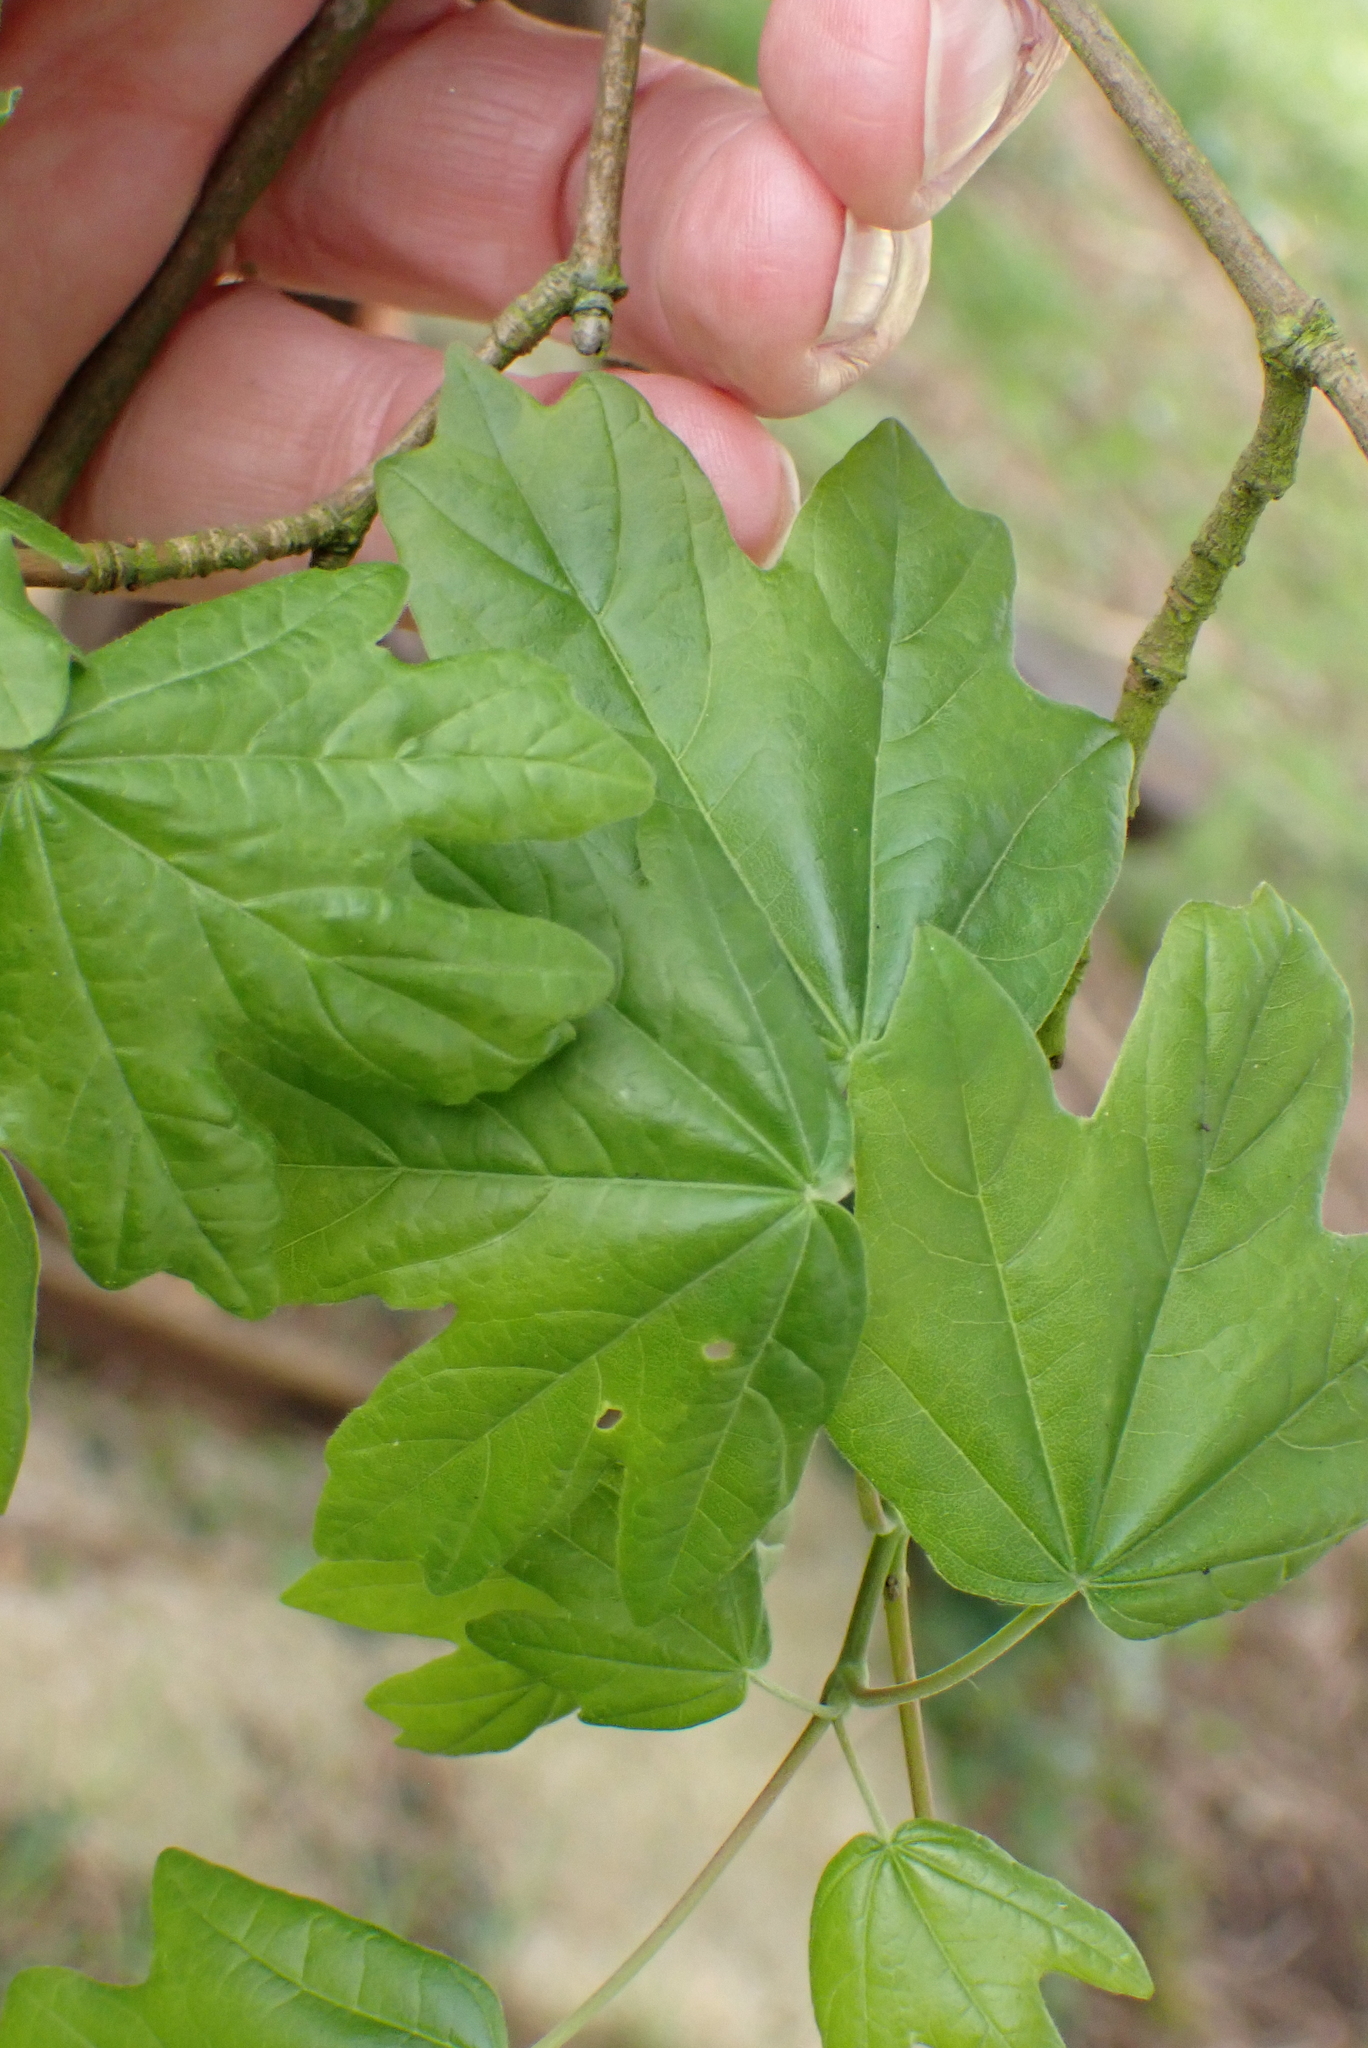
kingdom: Plantae
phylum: Tracheophyta
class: Magnoliopsida
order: Sapindales
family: Sapindaceae
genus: Acer
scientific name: Acer campestre
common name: Field maple
